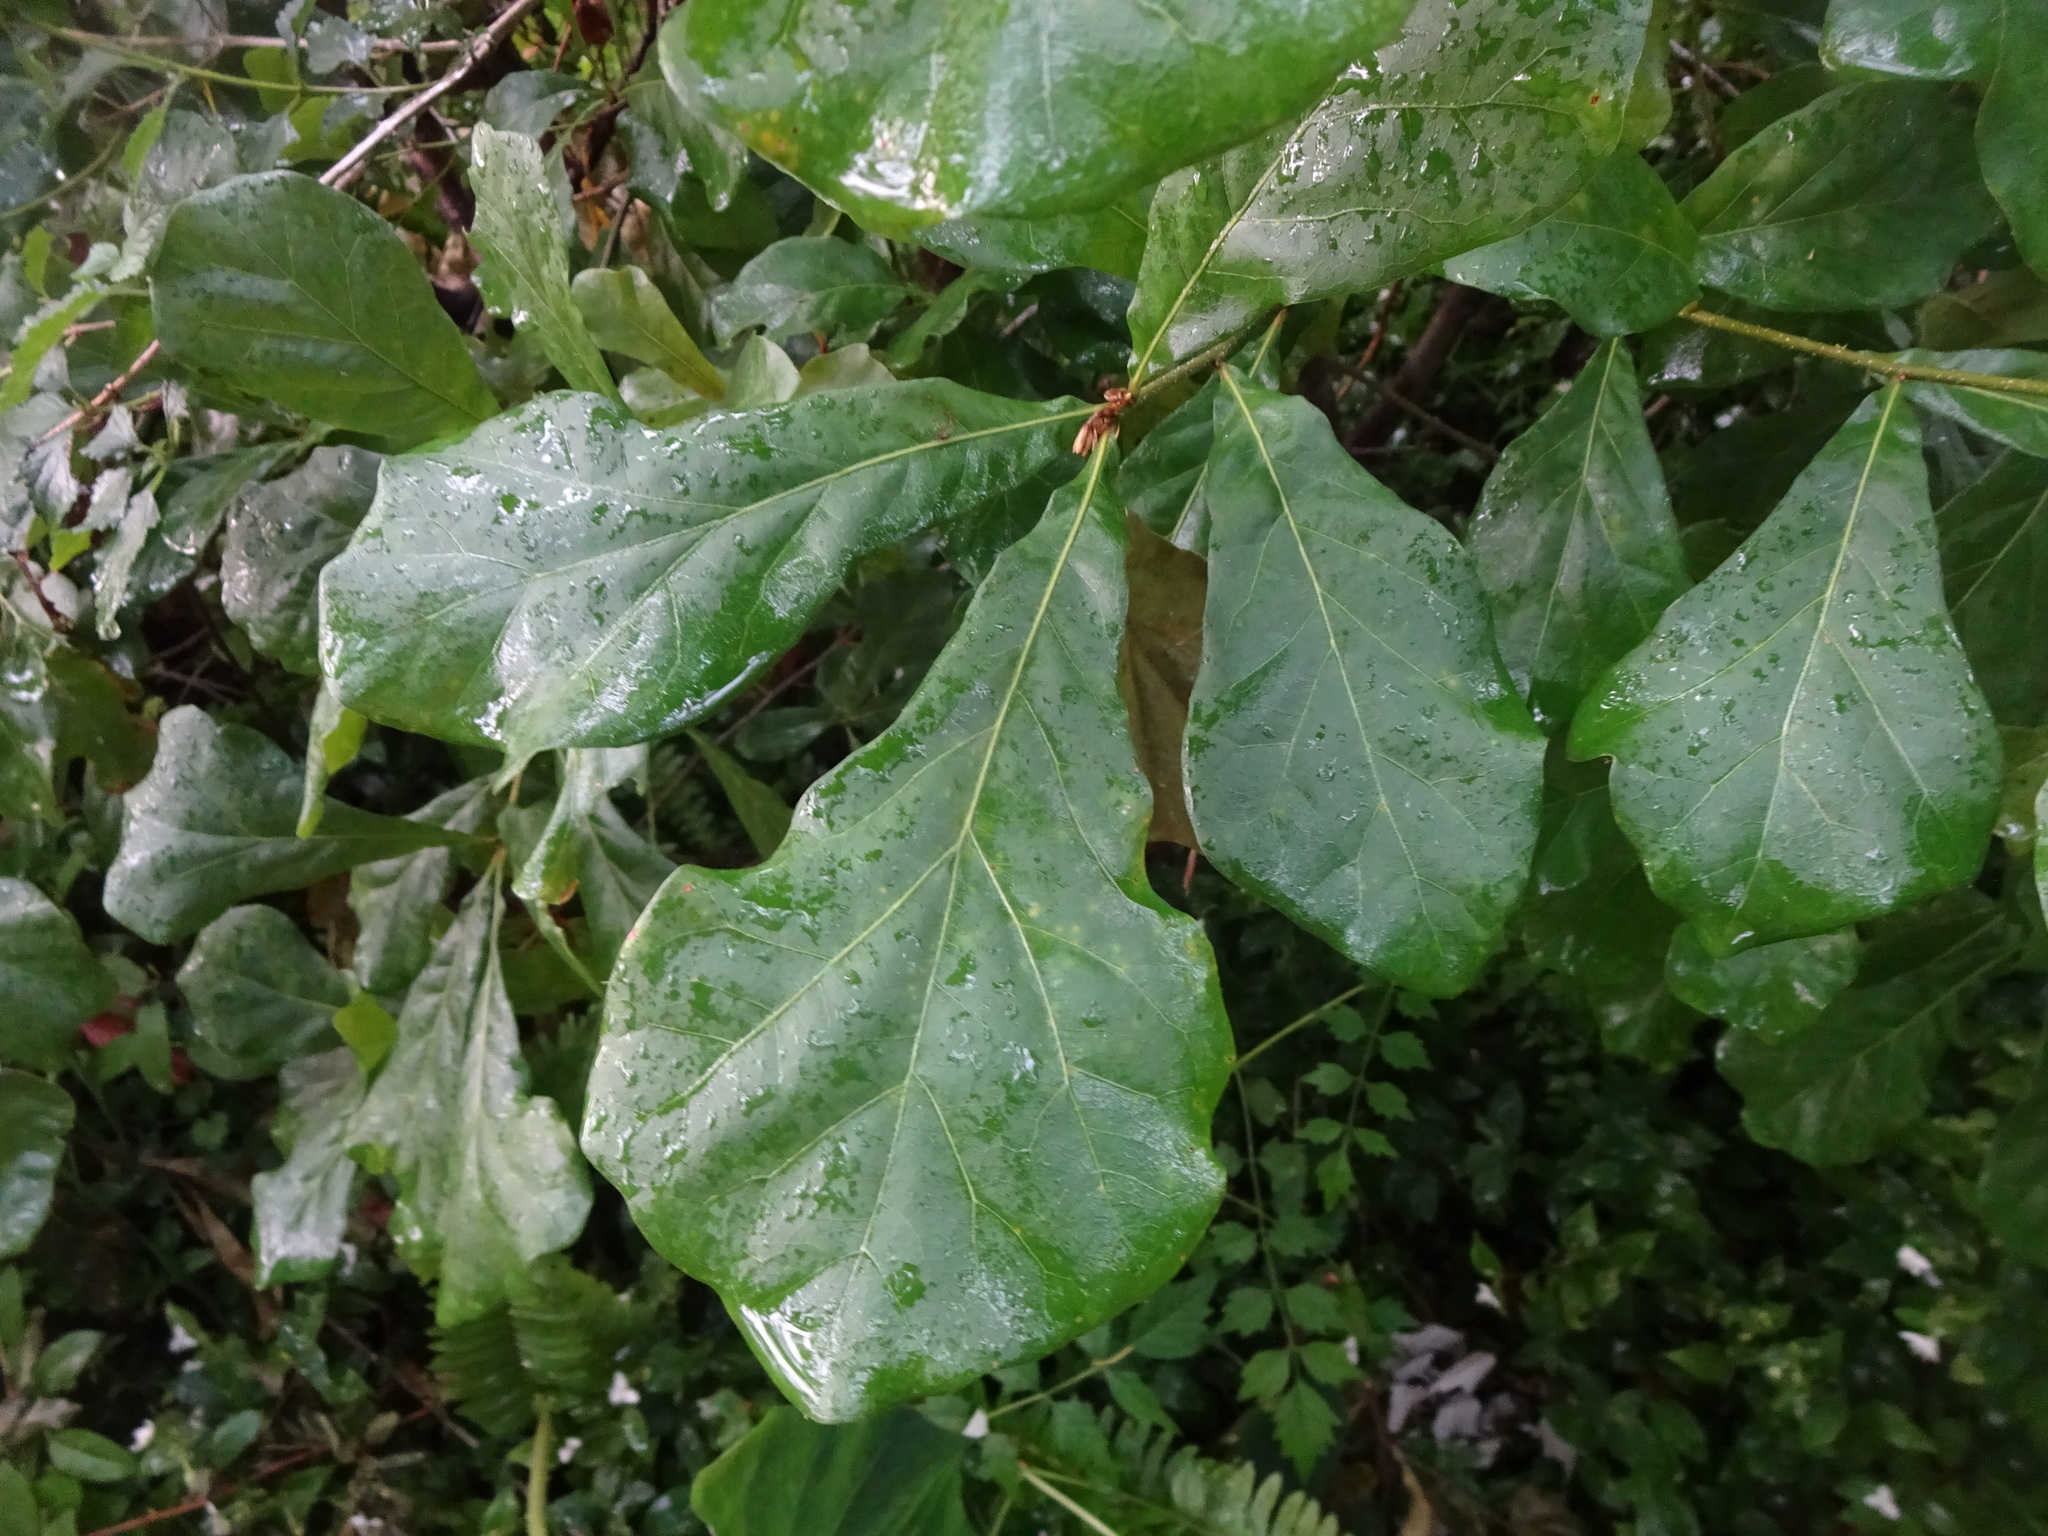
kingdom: Plantae
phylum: Tracheophyta
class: Magnoliopsida
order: Fagales
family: Fagaceae
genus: Quercus
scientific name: Quercus nigra
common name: Water oak
